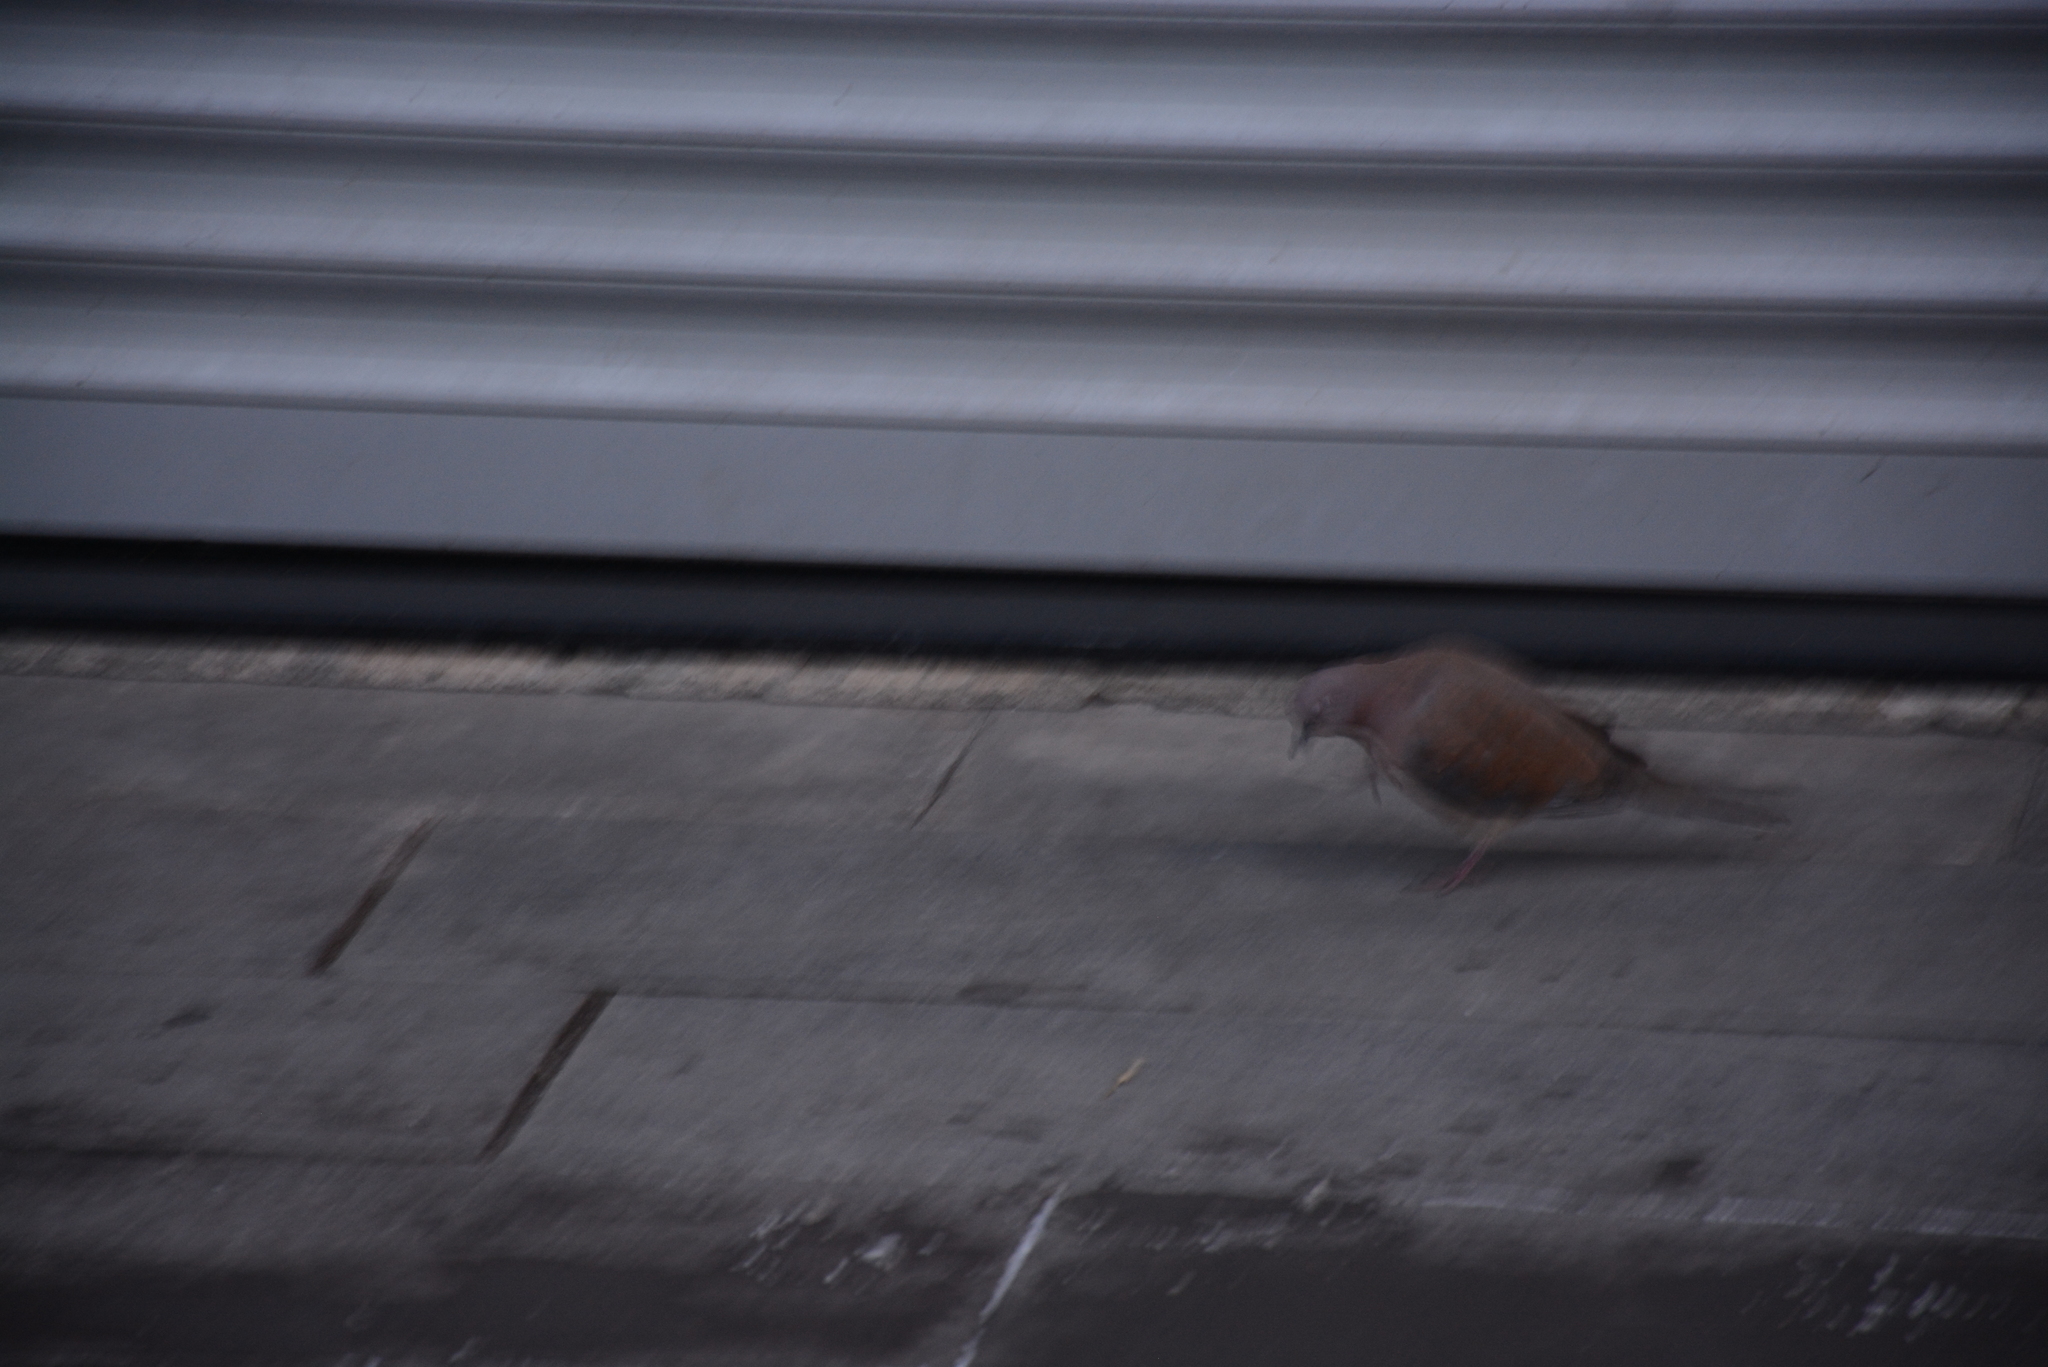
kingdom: Animalia
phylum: Chordata
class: Aves
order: Columbiformes
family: Columbidae
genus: Spilopelia
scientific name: Spilopelia senegalensis
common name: Laughing dove
